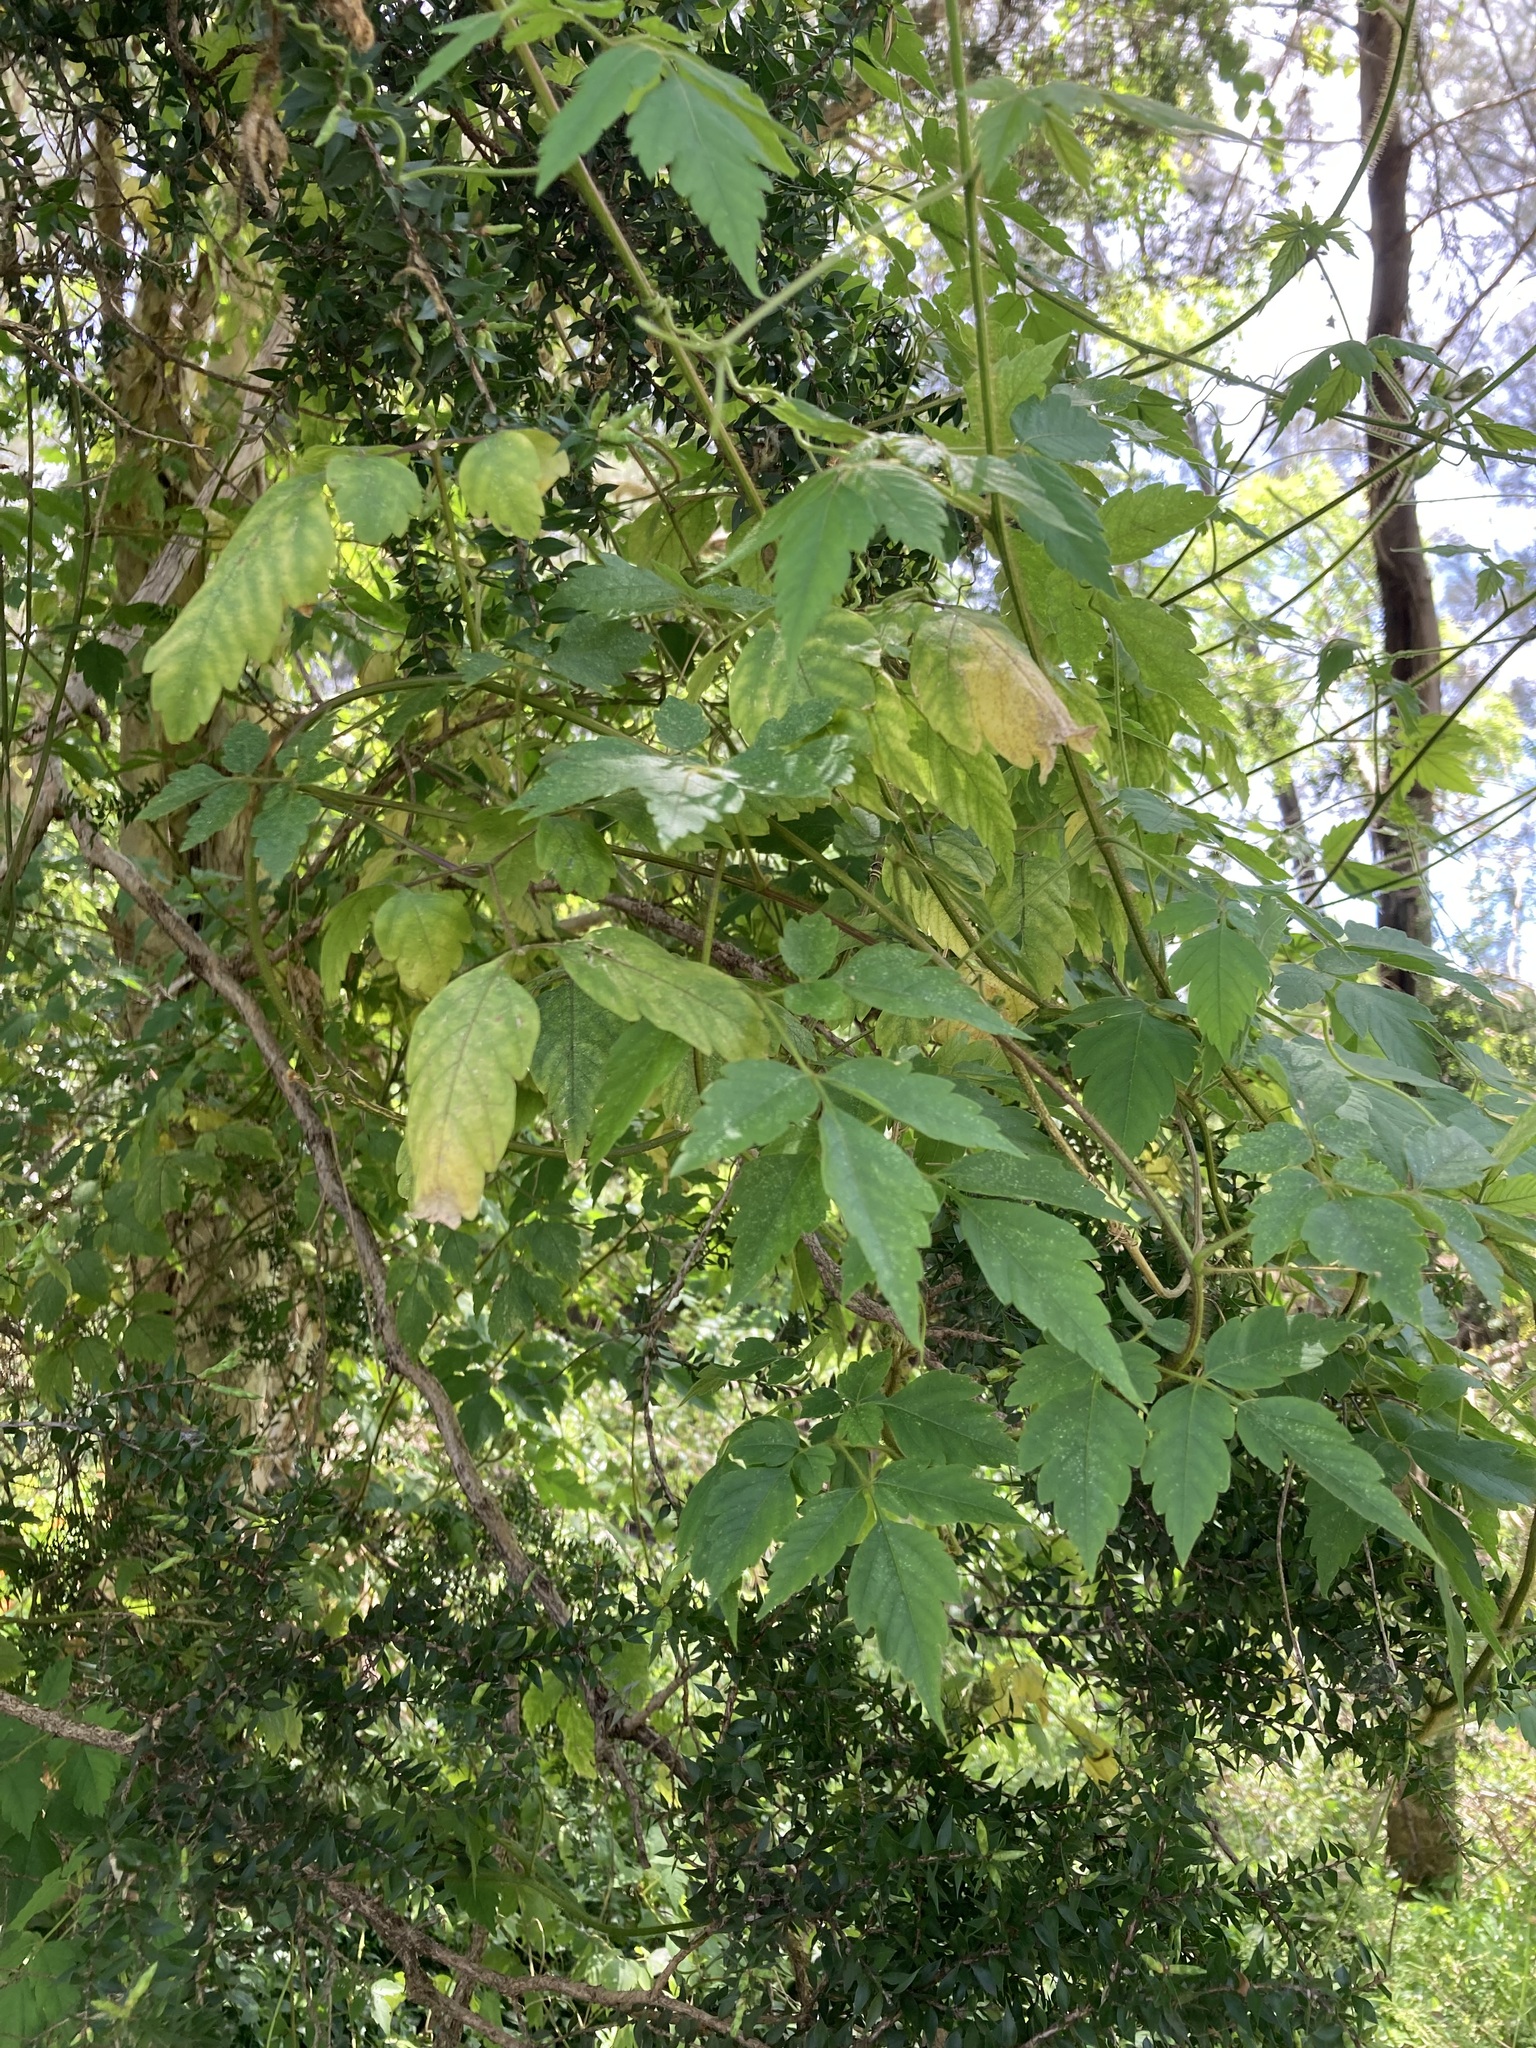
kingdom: Plantae
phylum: Tracheophyta
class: Magnoliopsida
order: Sapindales
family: Sapindaceae
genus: Cardiospermum
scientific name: Cardiospermum grandiflorum
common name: Balloon vine
